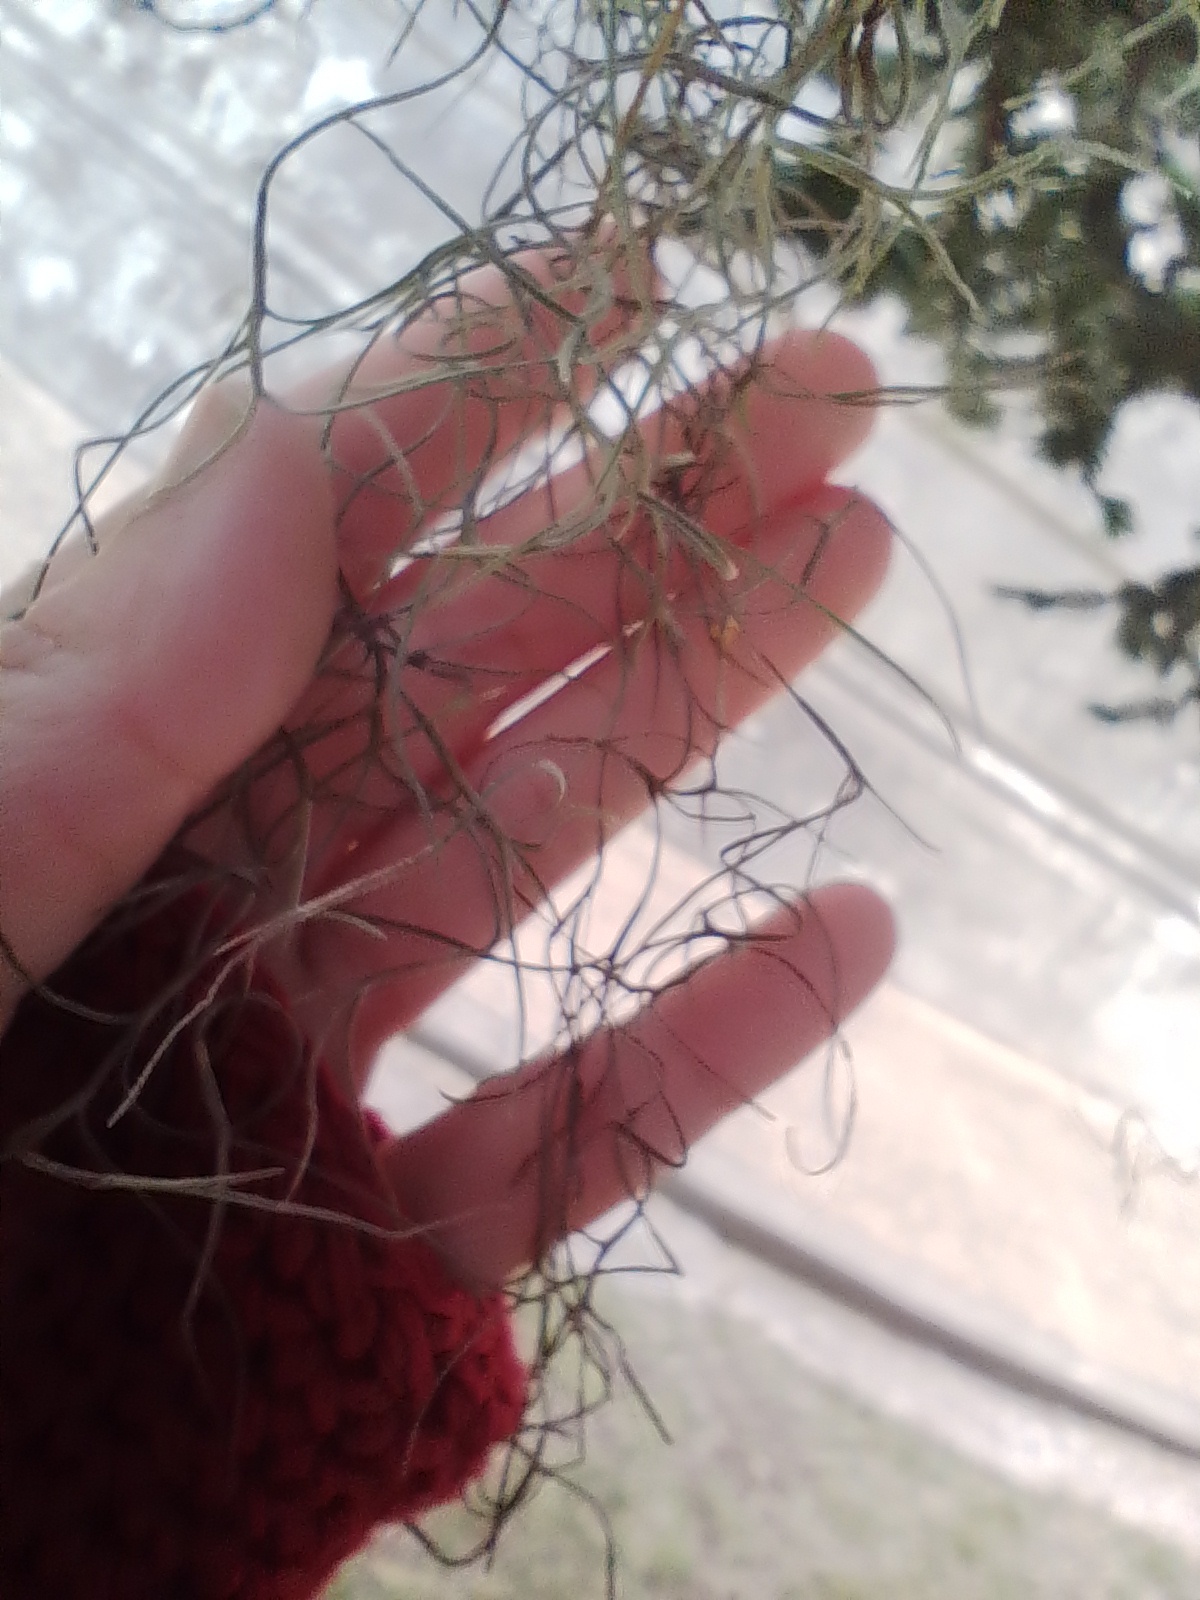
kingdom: Plantae
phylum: Tracheophyta
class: Liliopsida
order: Poales
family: Bromeliaceae
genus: Tillandsia
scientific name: Tillandsia usneoides
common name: Spanish moss
